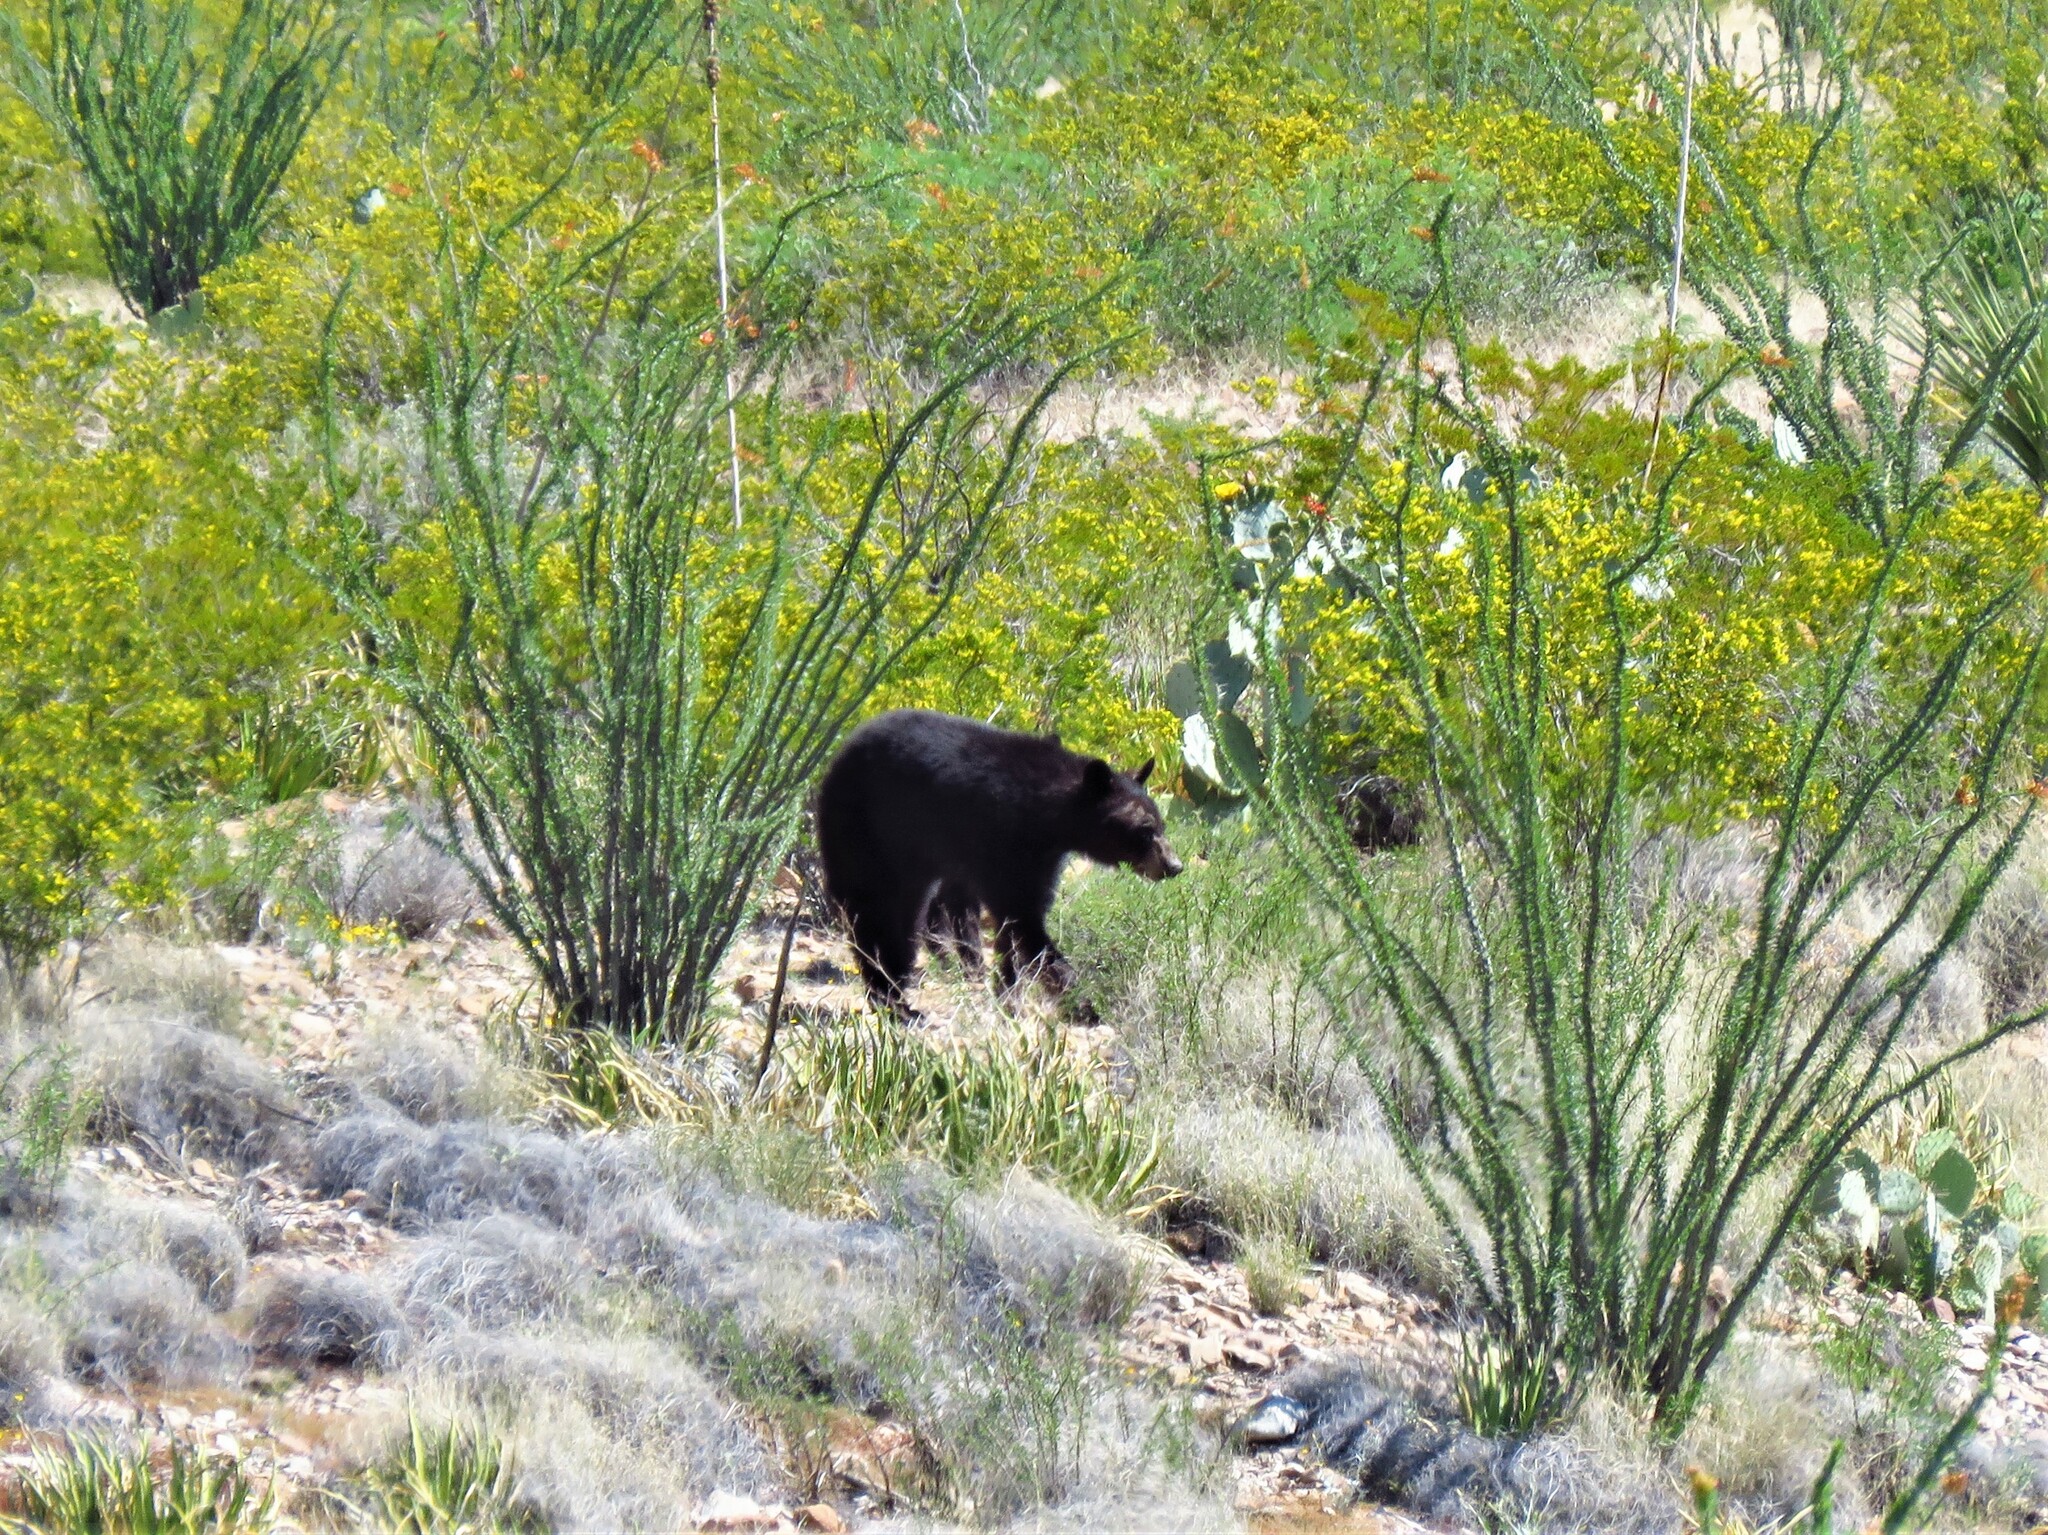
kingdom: Animalia
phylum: Chordata
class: Mammalia
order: Carnivora
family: Ursidae
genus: Ursus
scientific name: Ursus americanus
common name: American black bear
